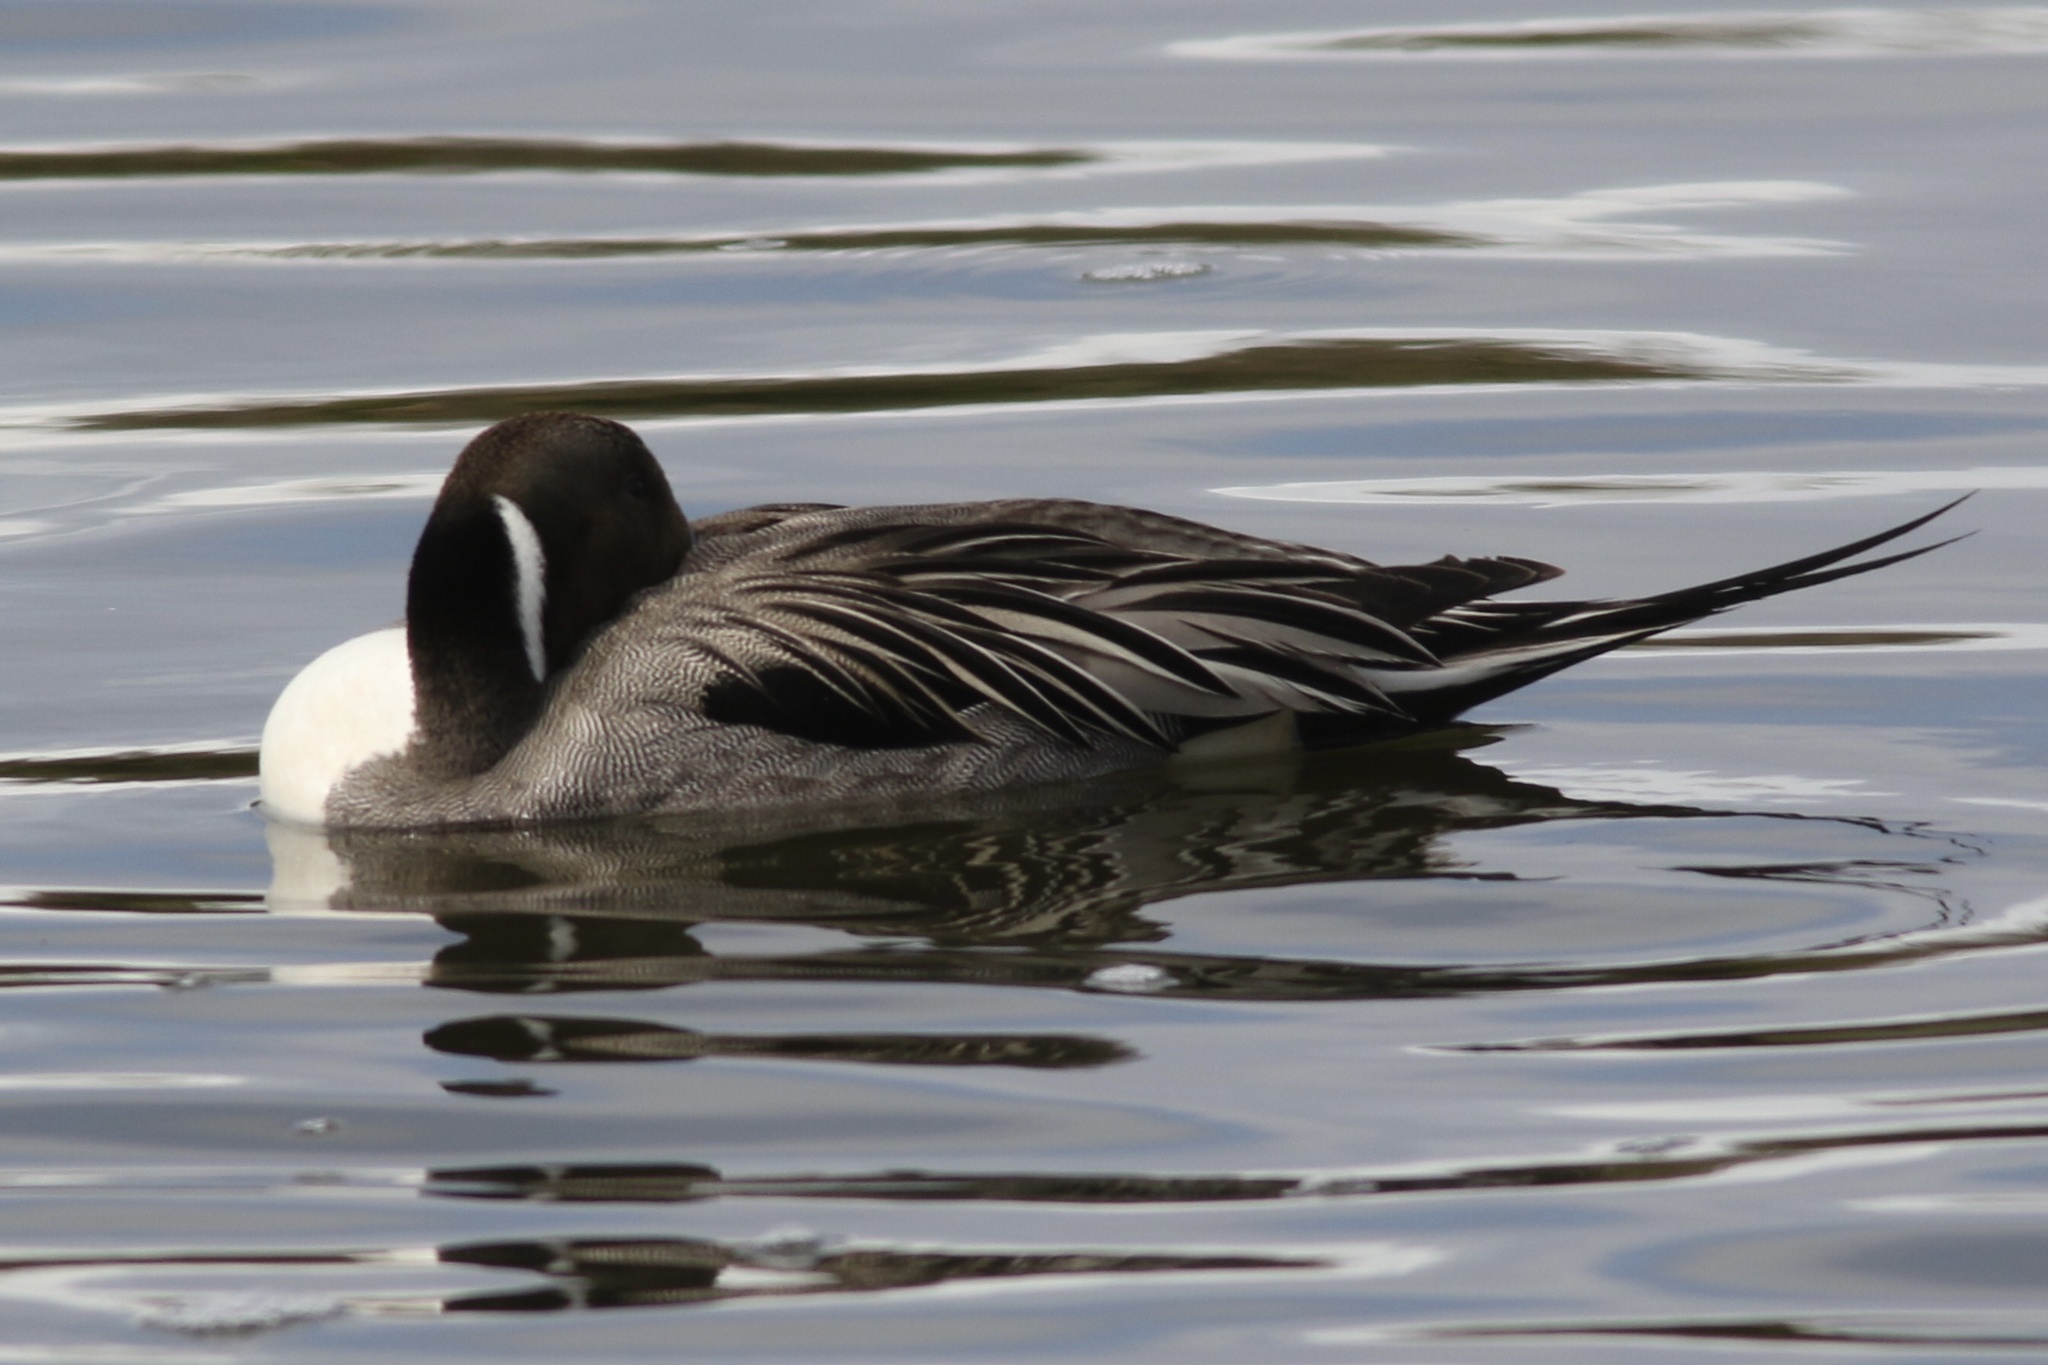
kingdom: Animalia
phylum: Chordata
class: Aves
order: Anseriformes
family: Anatidae
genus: Anas
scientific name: Anas acuta
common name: Northern pintail
